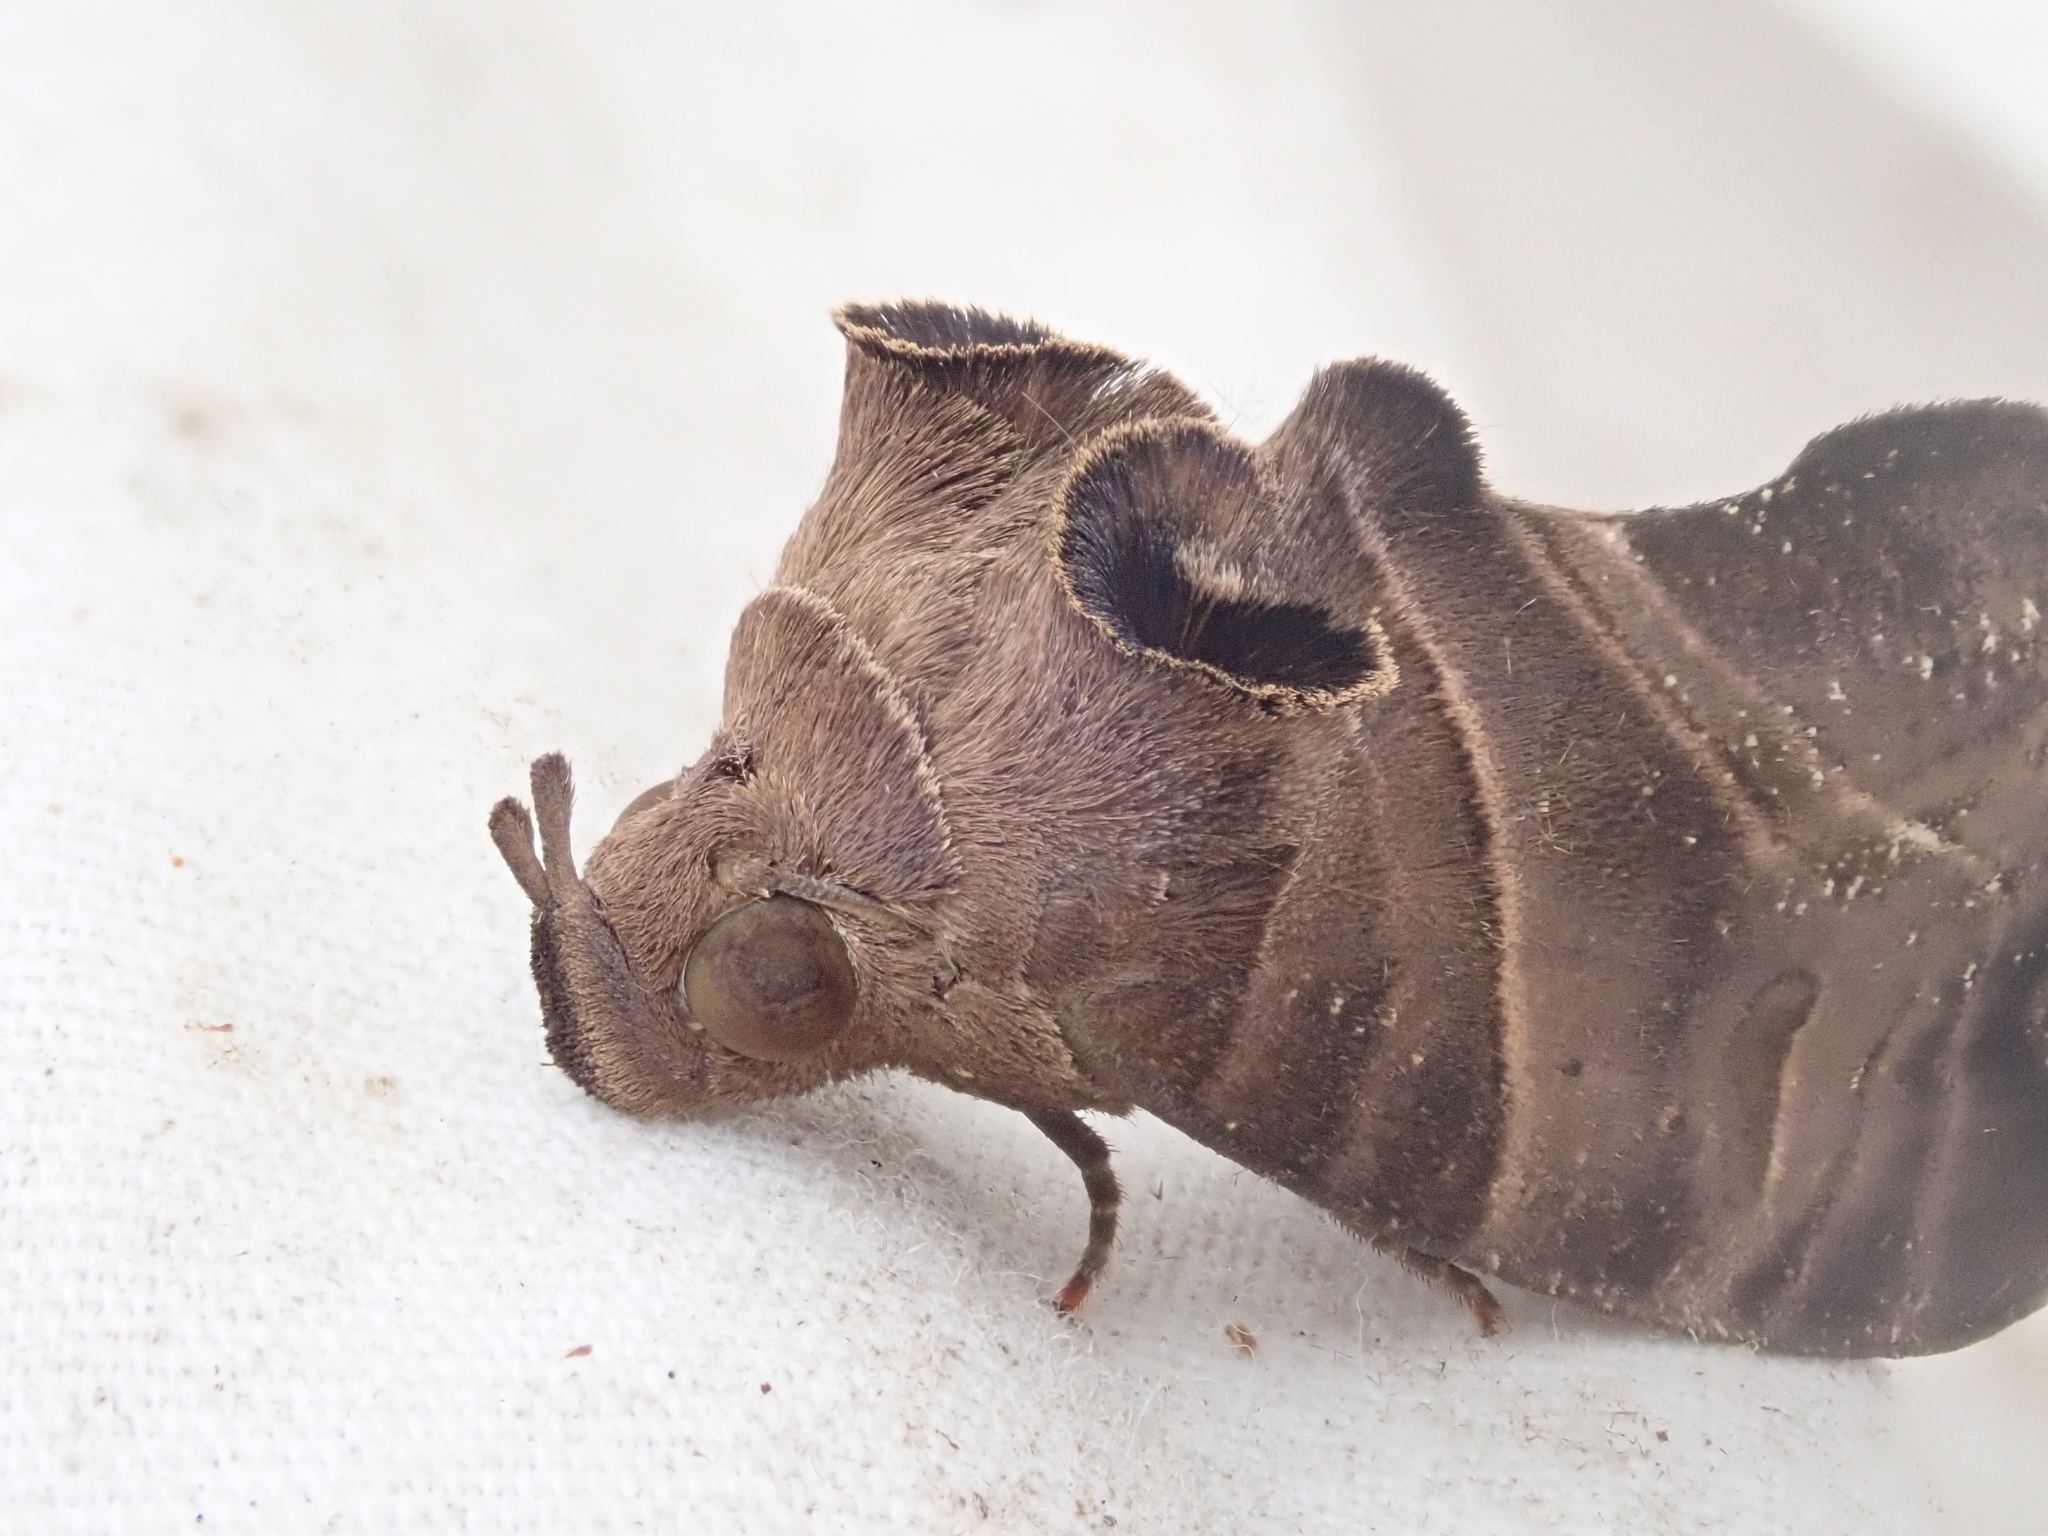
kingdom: Animalia
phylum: Arthropoda
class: Insecta
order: Lepidoptera
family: Erebidae
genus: Eudocima
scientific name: Eudocima memorans
